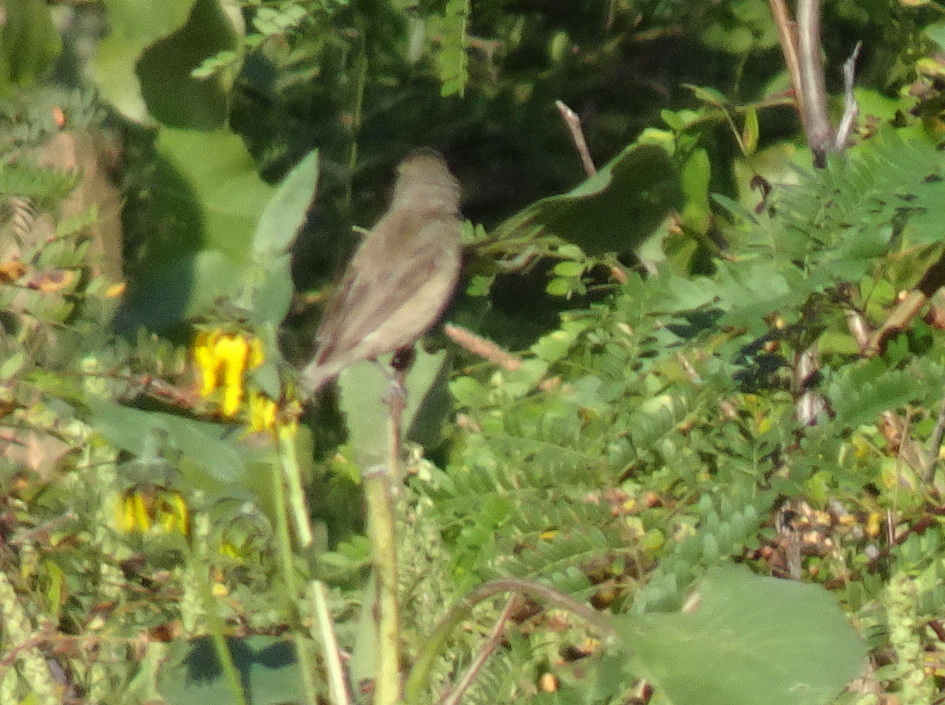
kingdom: Animalia
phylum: Chordata
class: Aves
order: Passeriformes
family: Cardinalidae
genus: Passerina
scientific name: Passerina cyanea
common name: Indigo bunting
